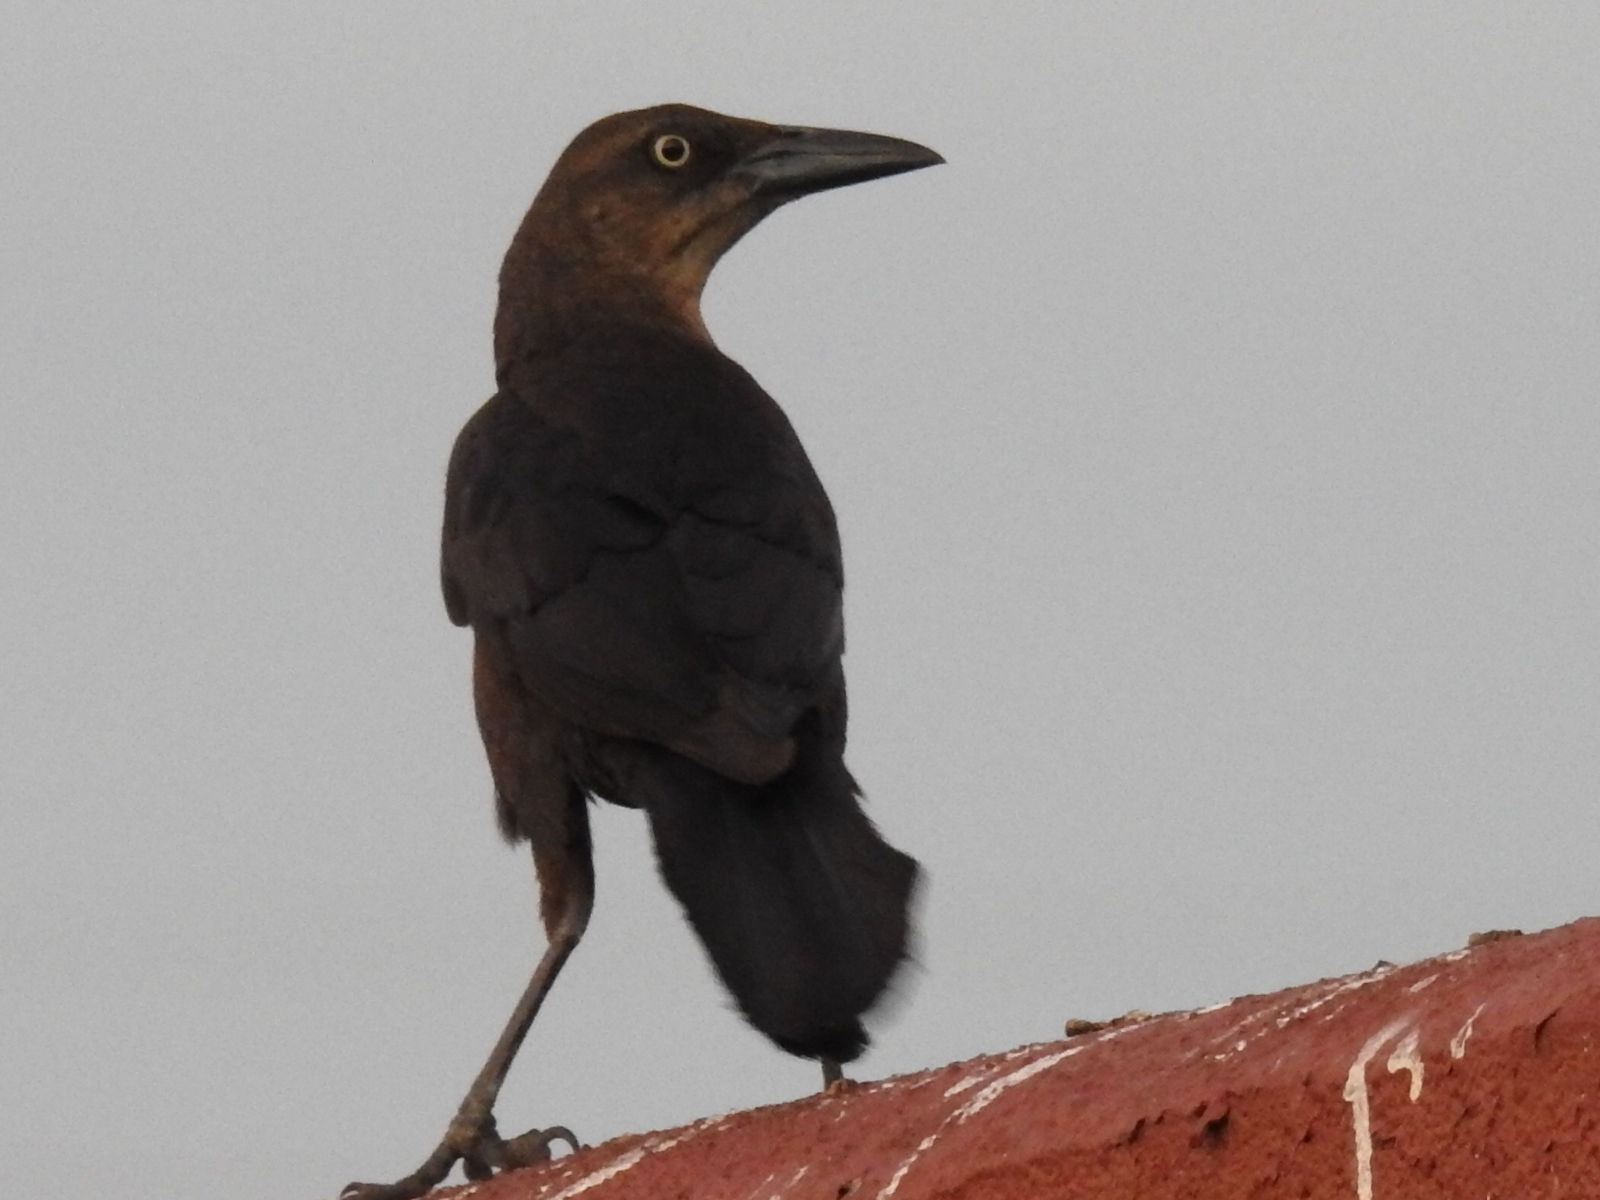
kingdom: Animalia
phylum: Chordata
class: Aves
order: Passeriformes
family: Icteridae
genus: Quiscalus
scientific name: Quiscalus mexicanus
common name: Great-tailed grackle
